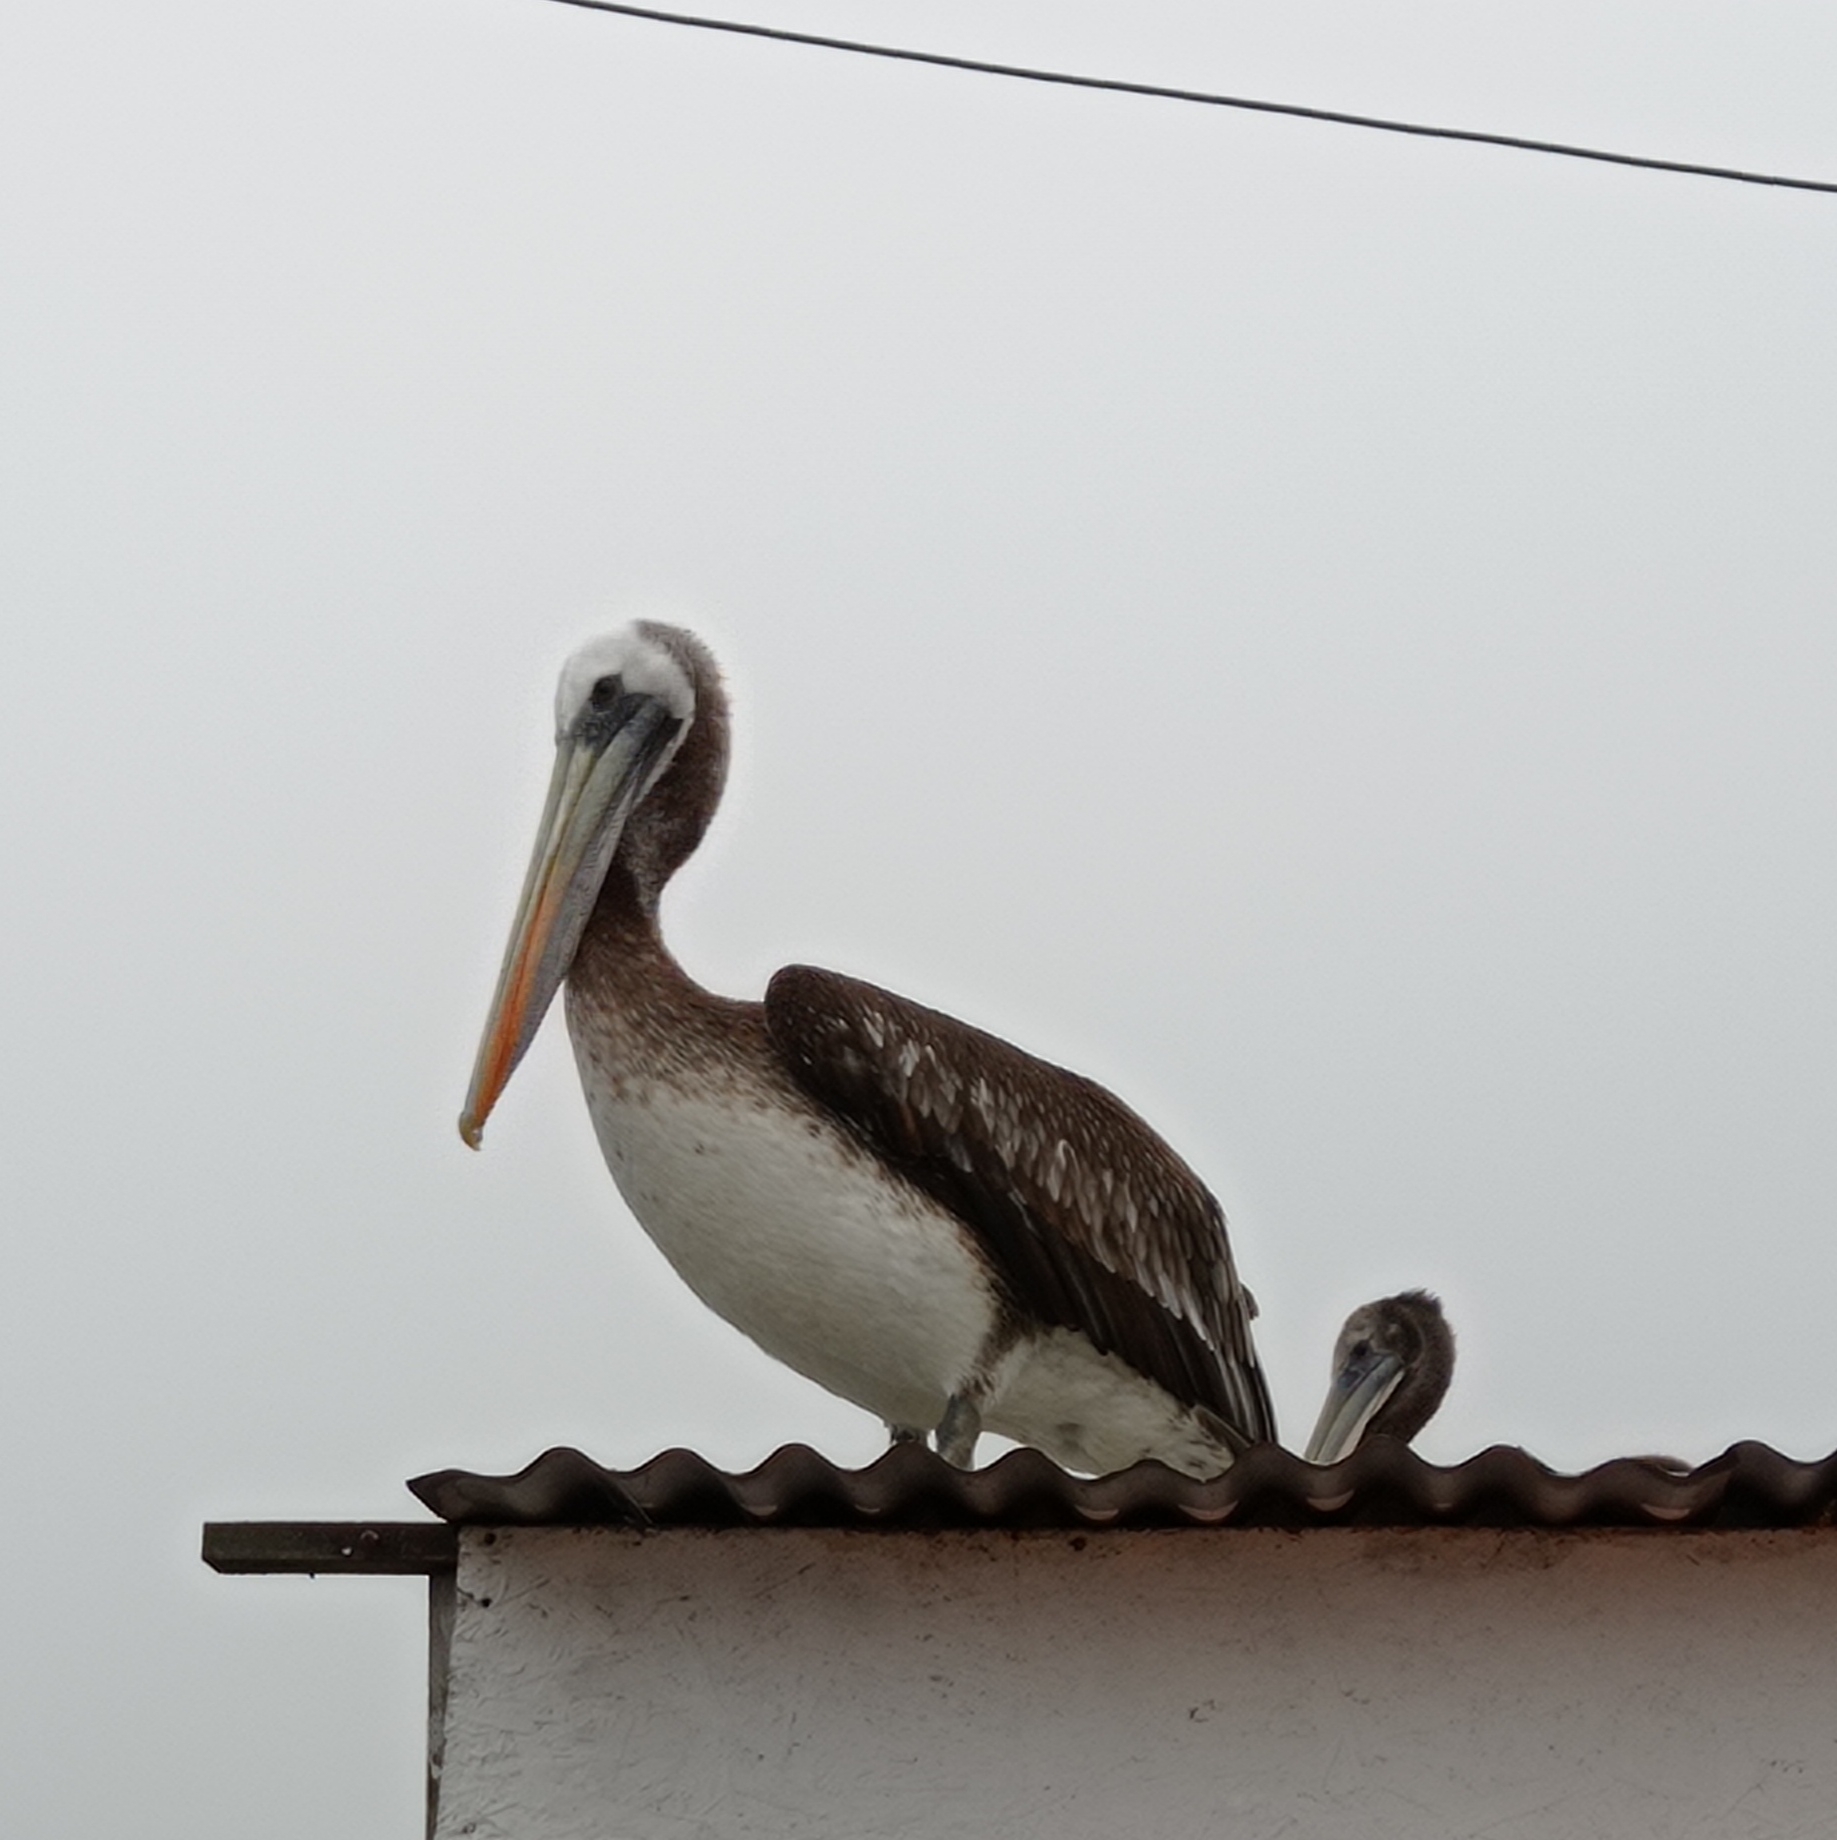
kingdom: Animalia
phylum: Chordata
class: Aves
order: Pelecaniformes
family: Pelecanidae
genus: Pelecanus
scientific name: Pelecanus thagus
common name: Peruvian pelican
